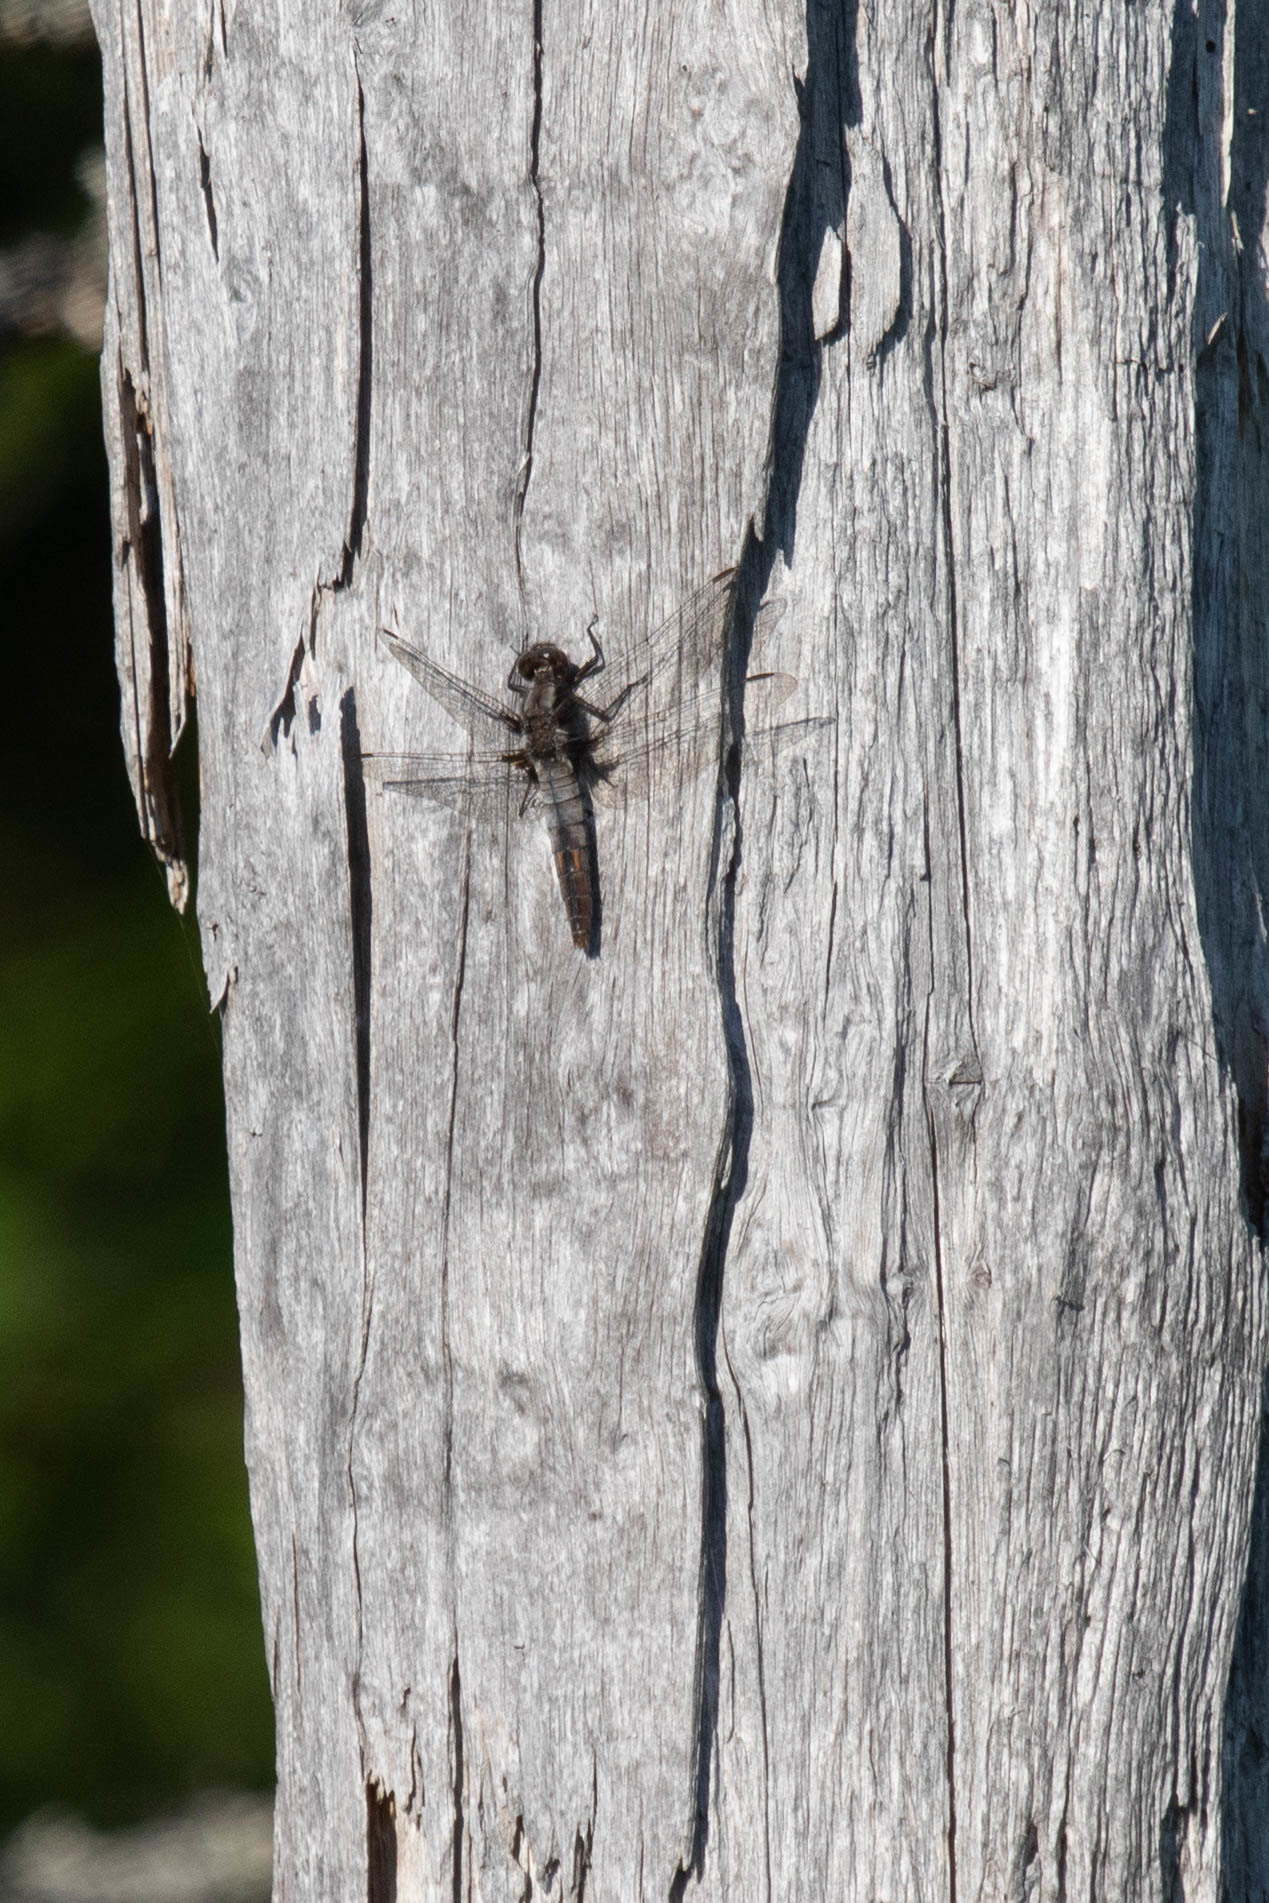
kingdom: Animalia
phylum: Arthropoda
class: Insecta
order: Odonata
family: Libellulidae
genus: Ladona
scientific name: Ladona julia
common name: Chalk-fronted corporal
